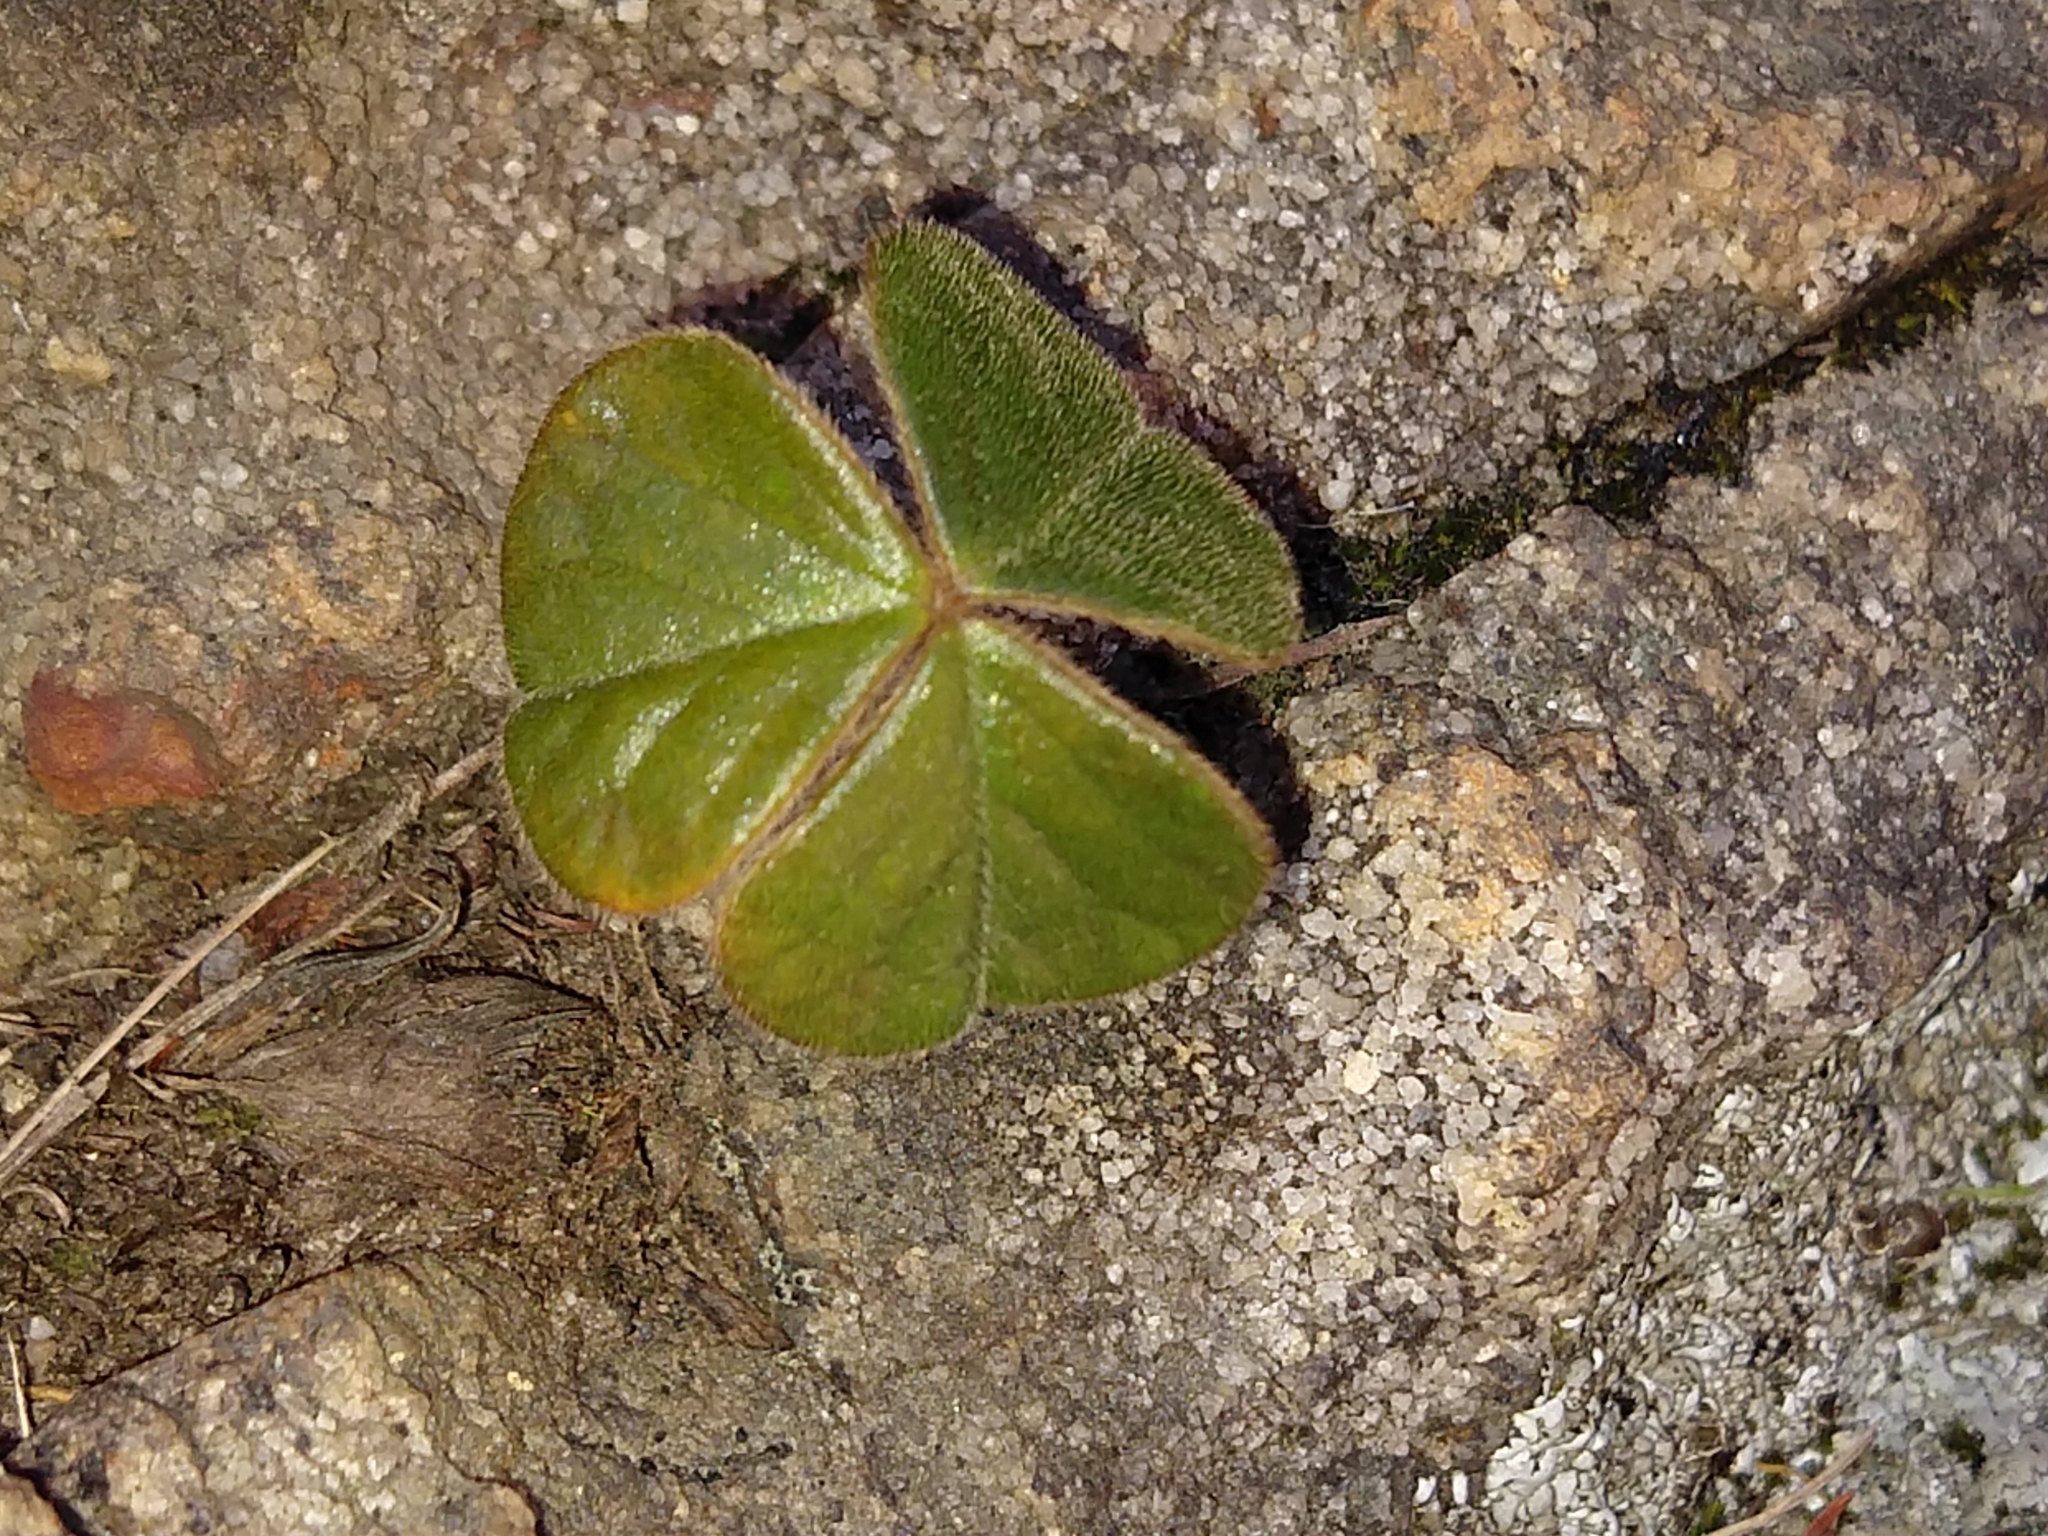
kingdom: Plantae
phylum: Tracheophyta
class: Magnoliopsida
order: Oxalidales
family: Oxalidaceae
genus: Oxalis
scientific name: Oxalis truncatula
